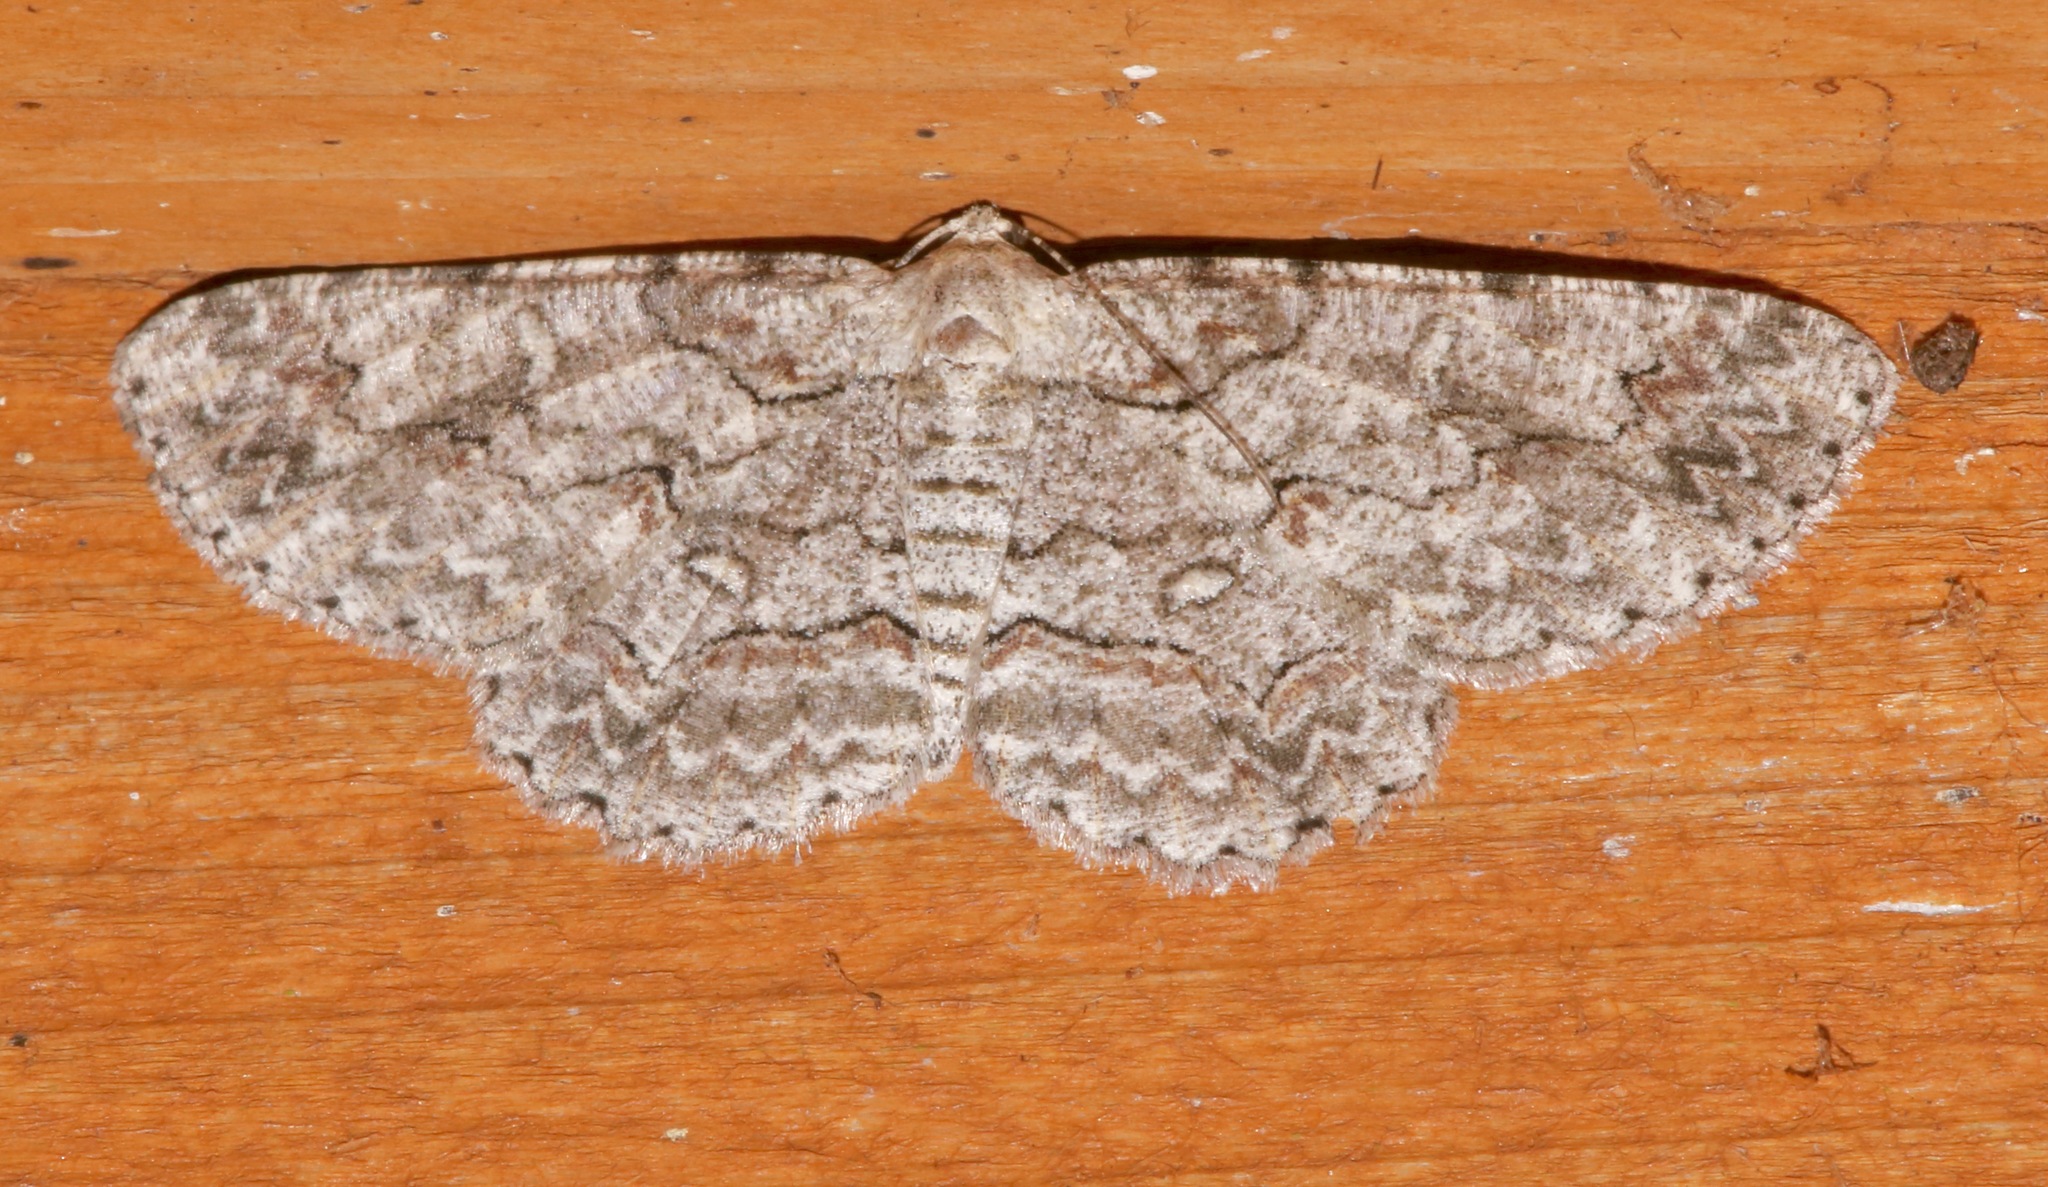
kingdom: Animalia
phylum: Arthropoda
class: Insecta
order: Lepidoptera
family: Geometridae
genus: Iridopsis
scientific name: Iridopsis defectaria
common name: Brown-shaded gray
